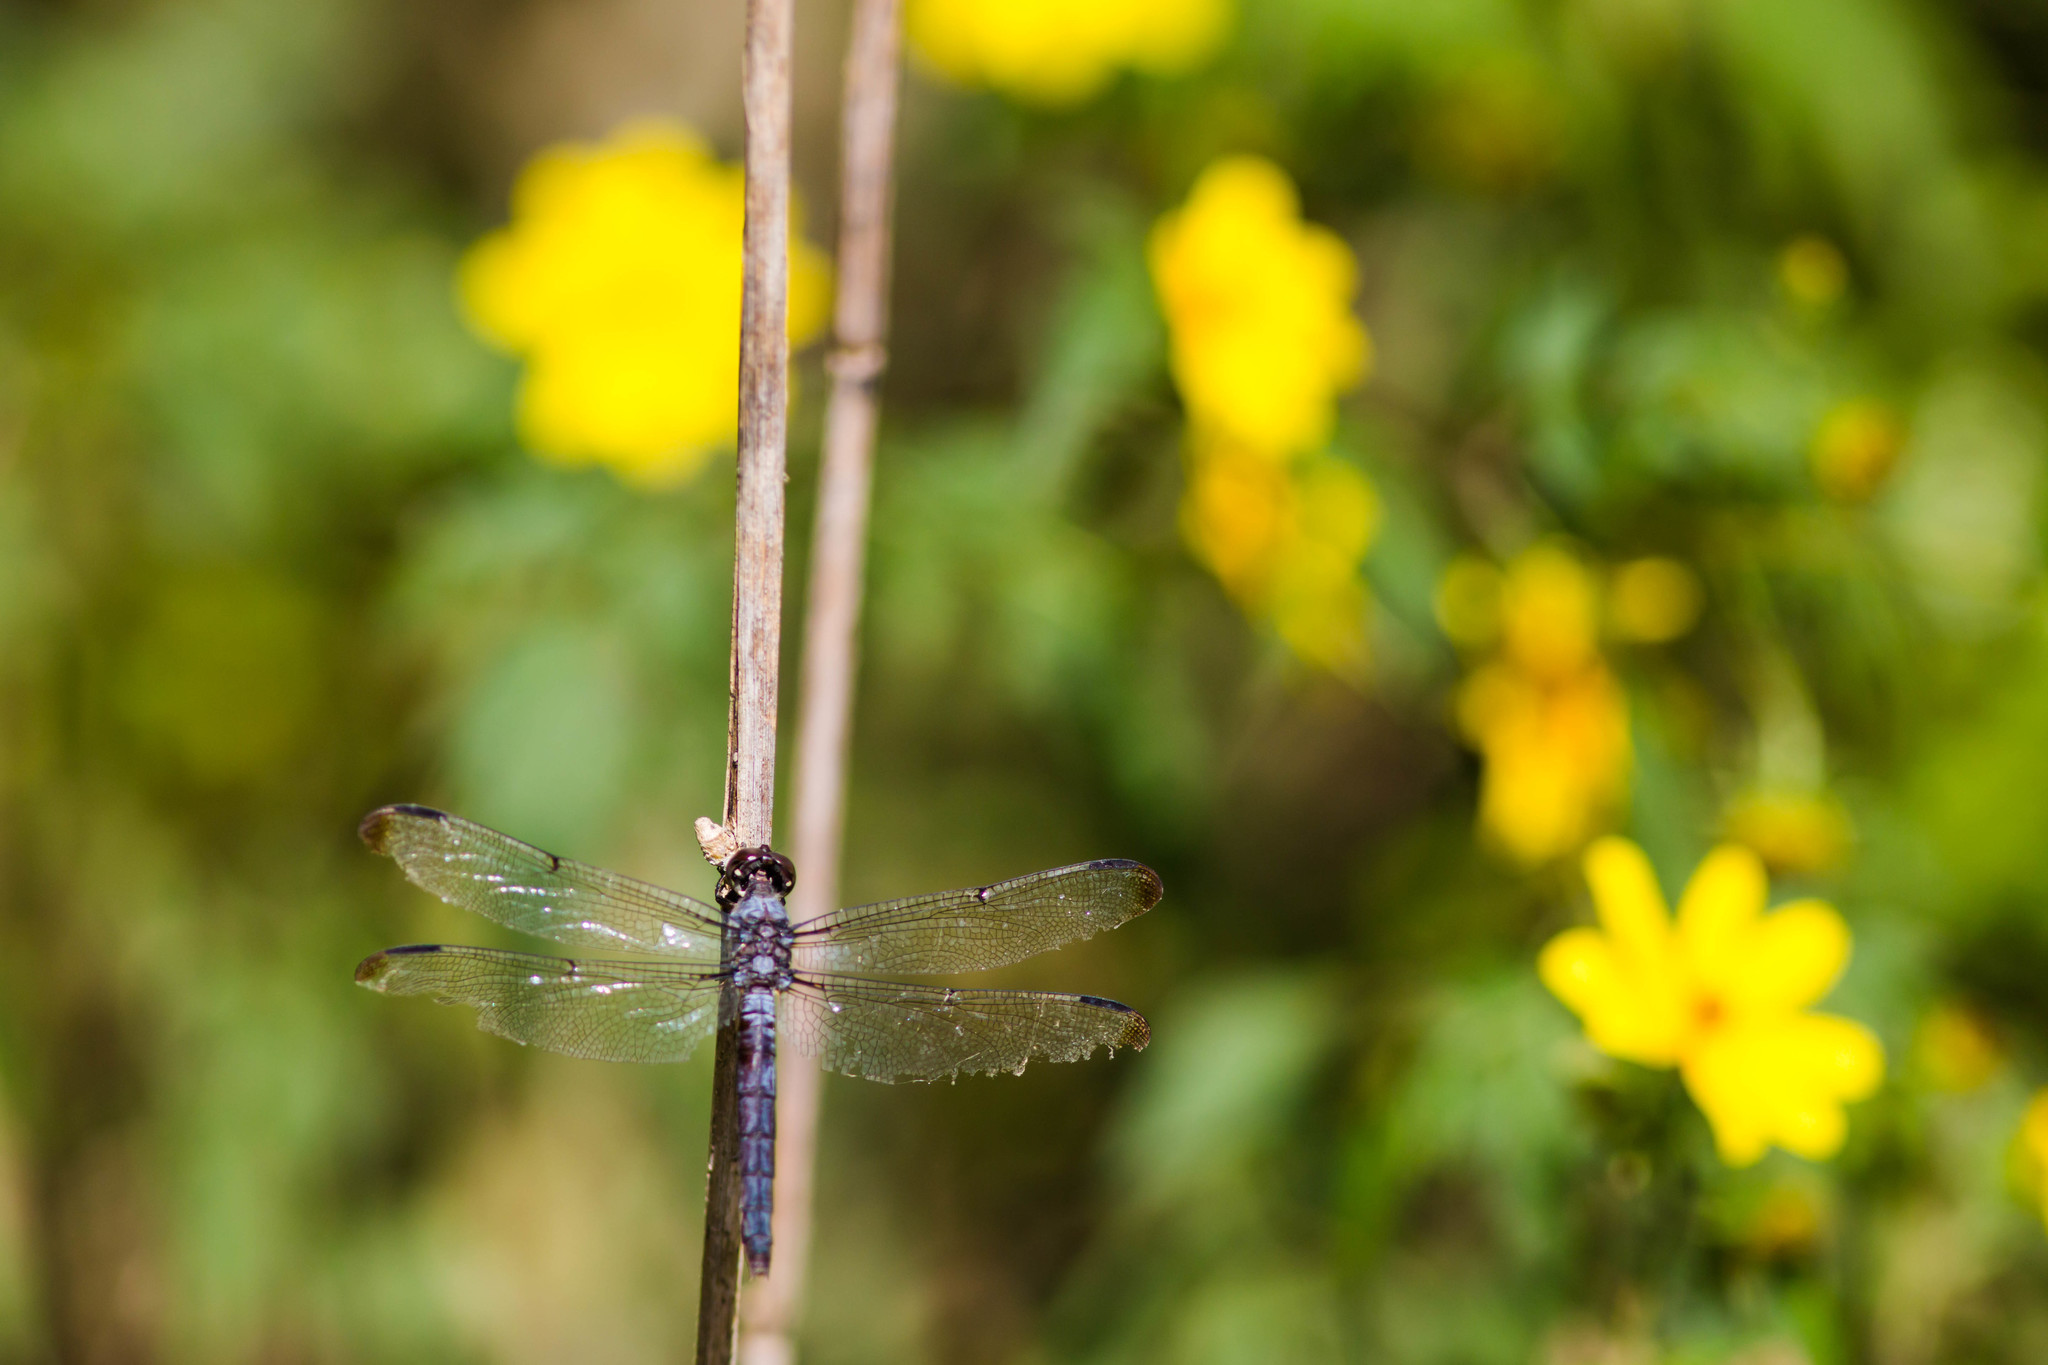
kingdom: Animalia
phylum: Arthropoda
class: Insecta
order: Odonata
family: Libellulidae
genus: Libellula
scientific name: Libellula incesta
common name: Slaty skimmer
